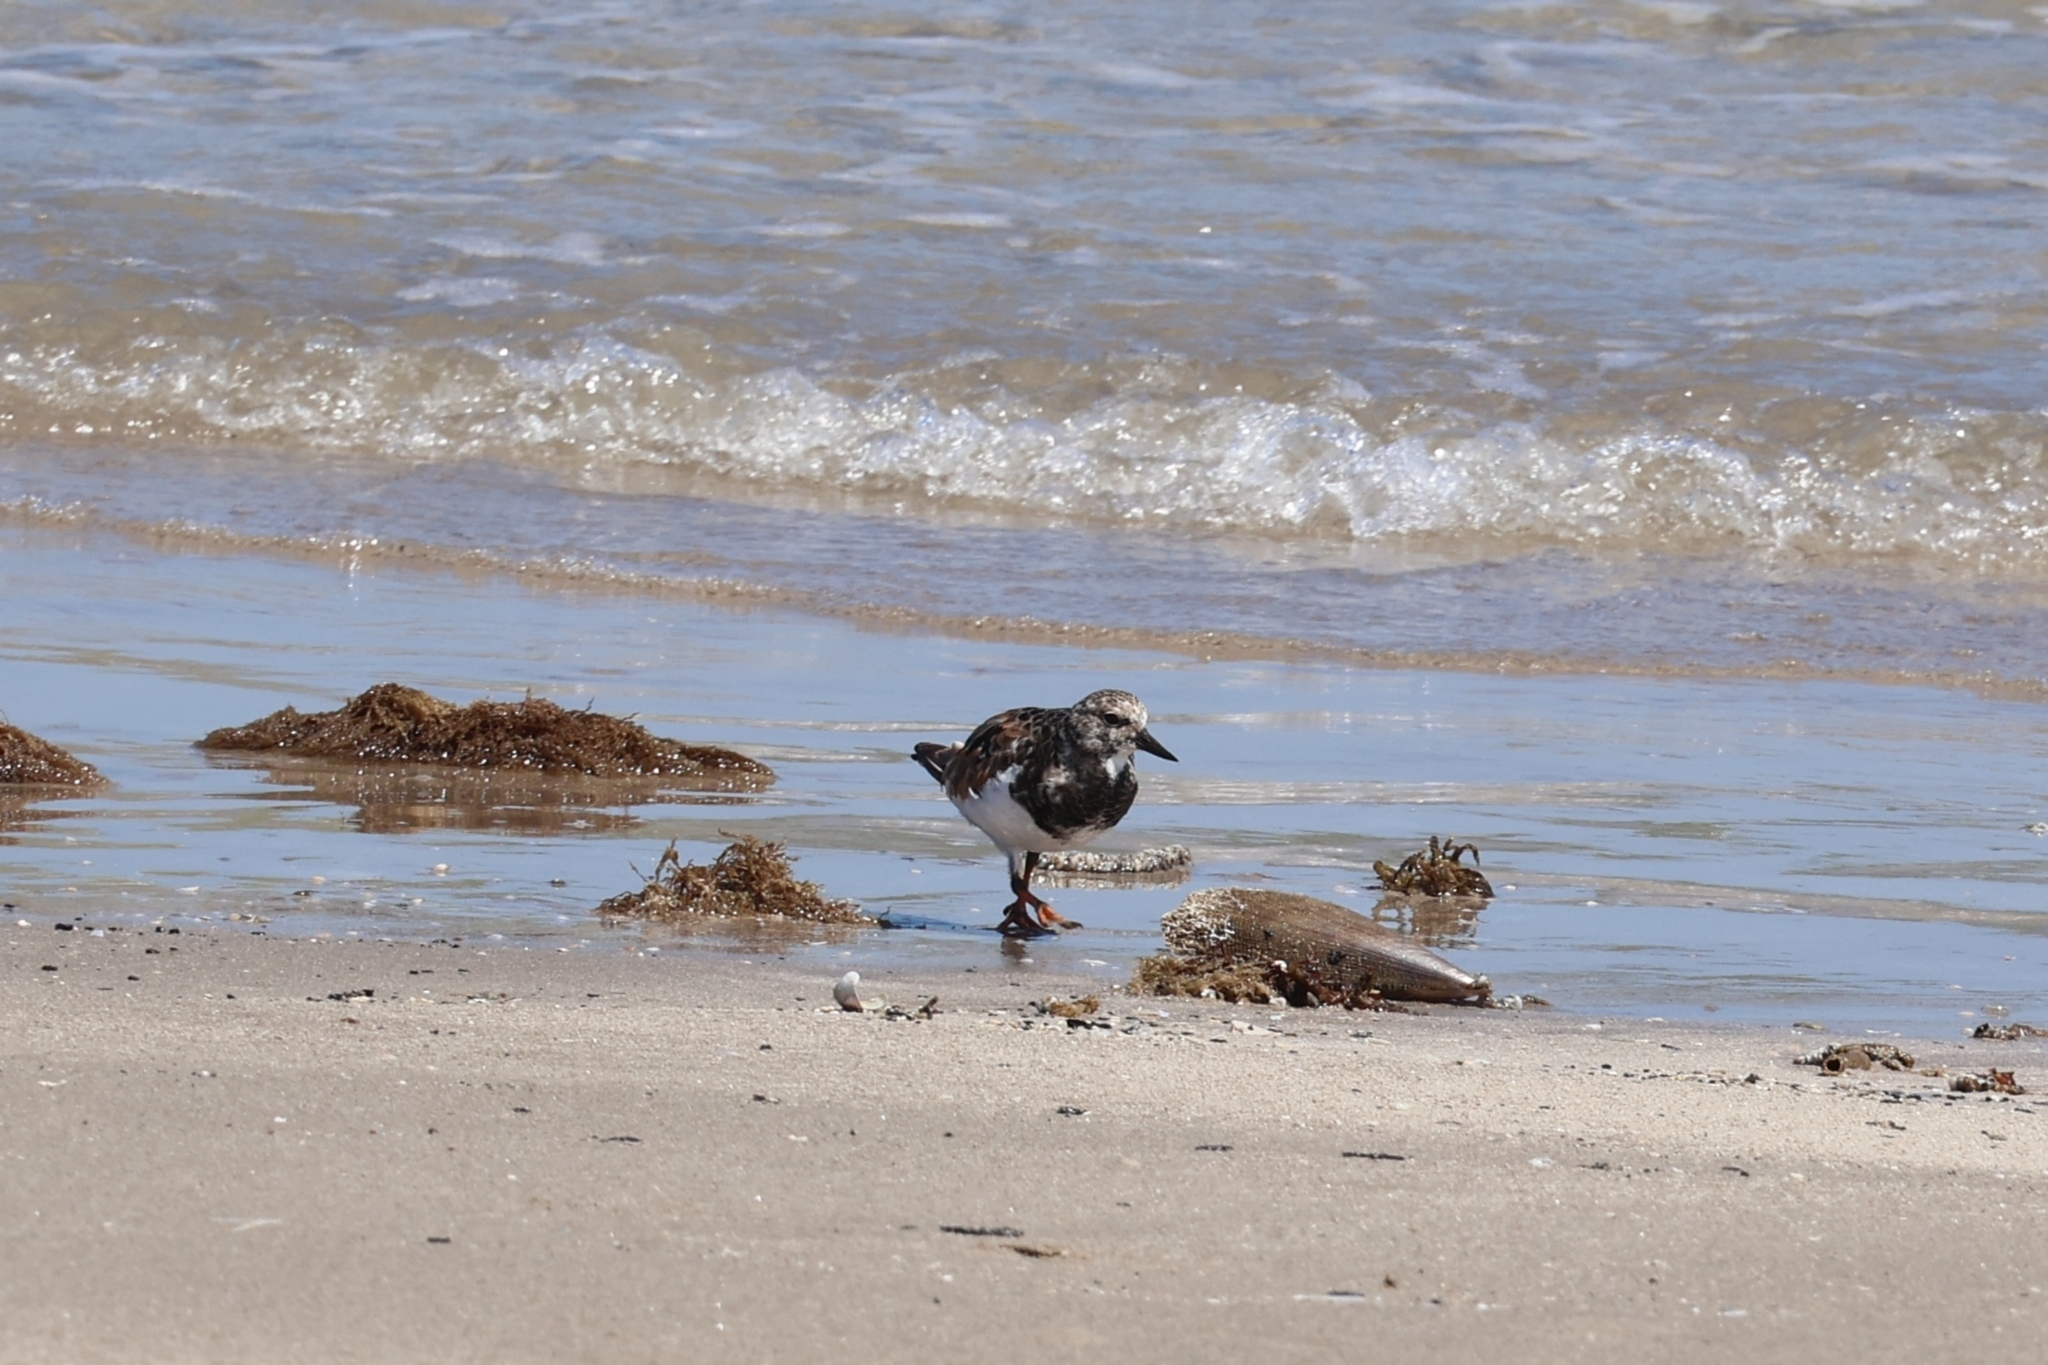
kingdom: Animalia
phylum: Chordata
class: Aves
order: Charadriiformes
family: Scolopacidae
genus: Arenaria
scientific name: Arenaria interpres
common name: Ruddy turnstone
